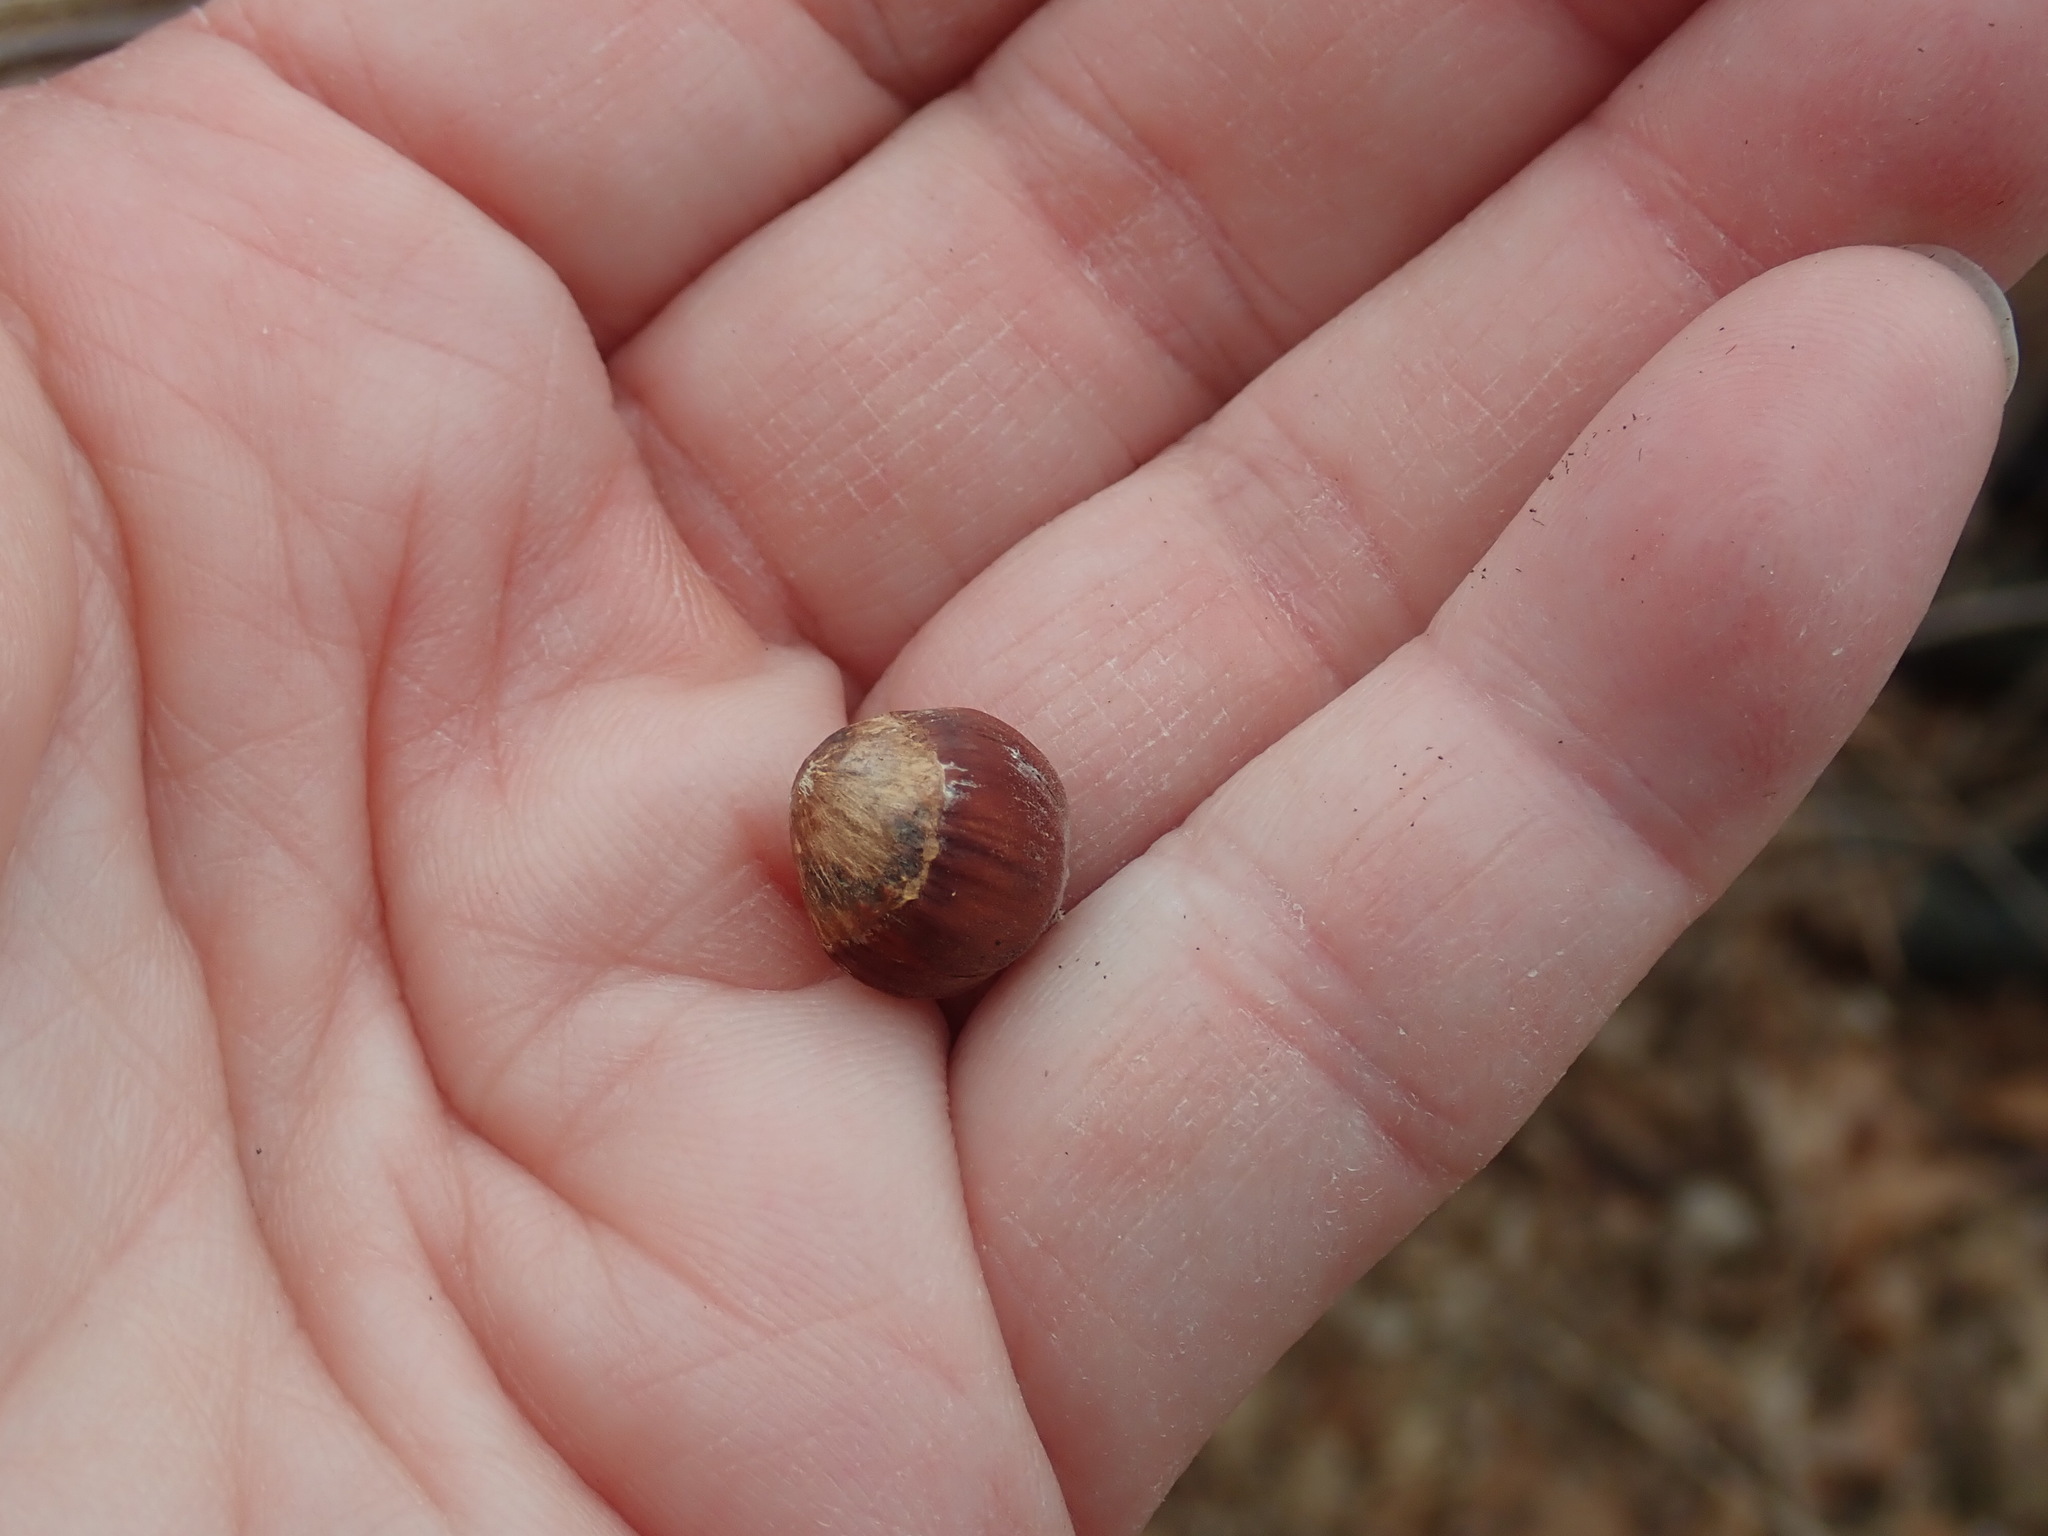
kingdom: Plantae
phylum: Tracheophyta
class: Magnoliopsida
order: Fagales
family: Betulaceae
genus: Corylus
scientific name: Corylus americana
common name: American hazel
